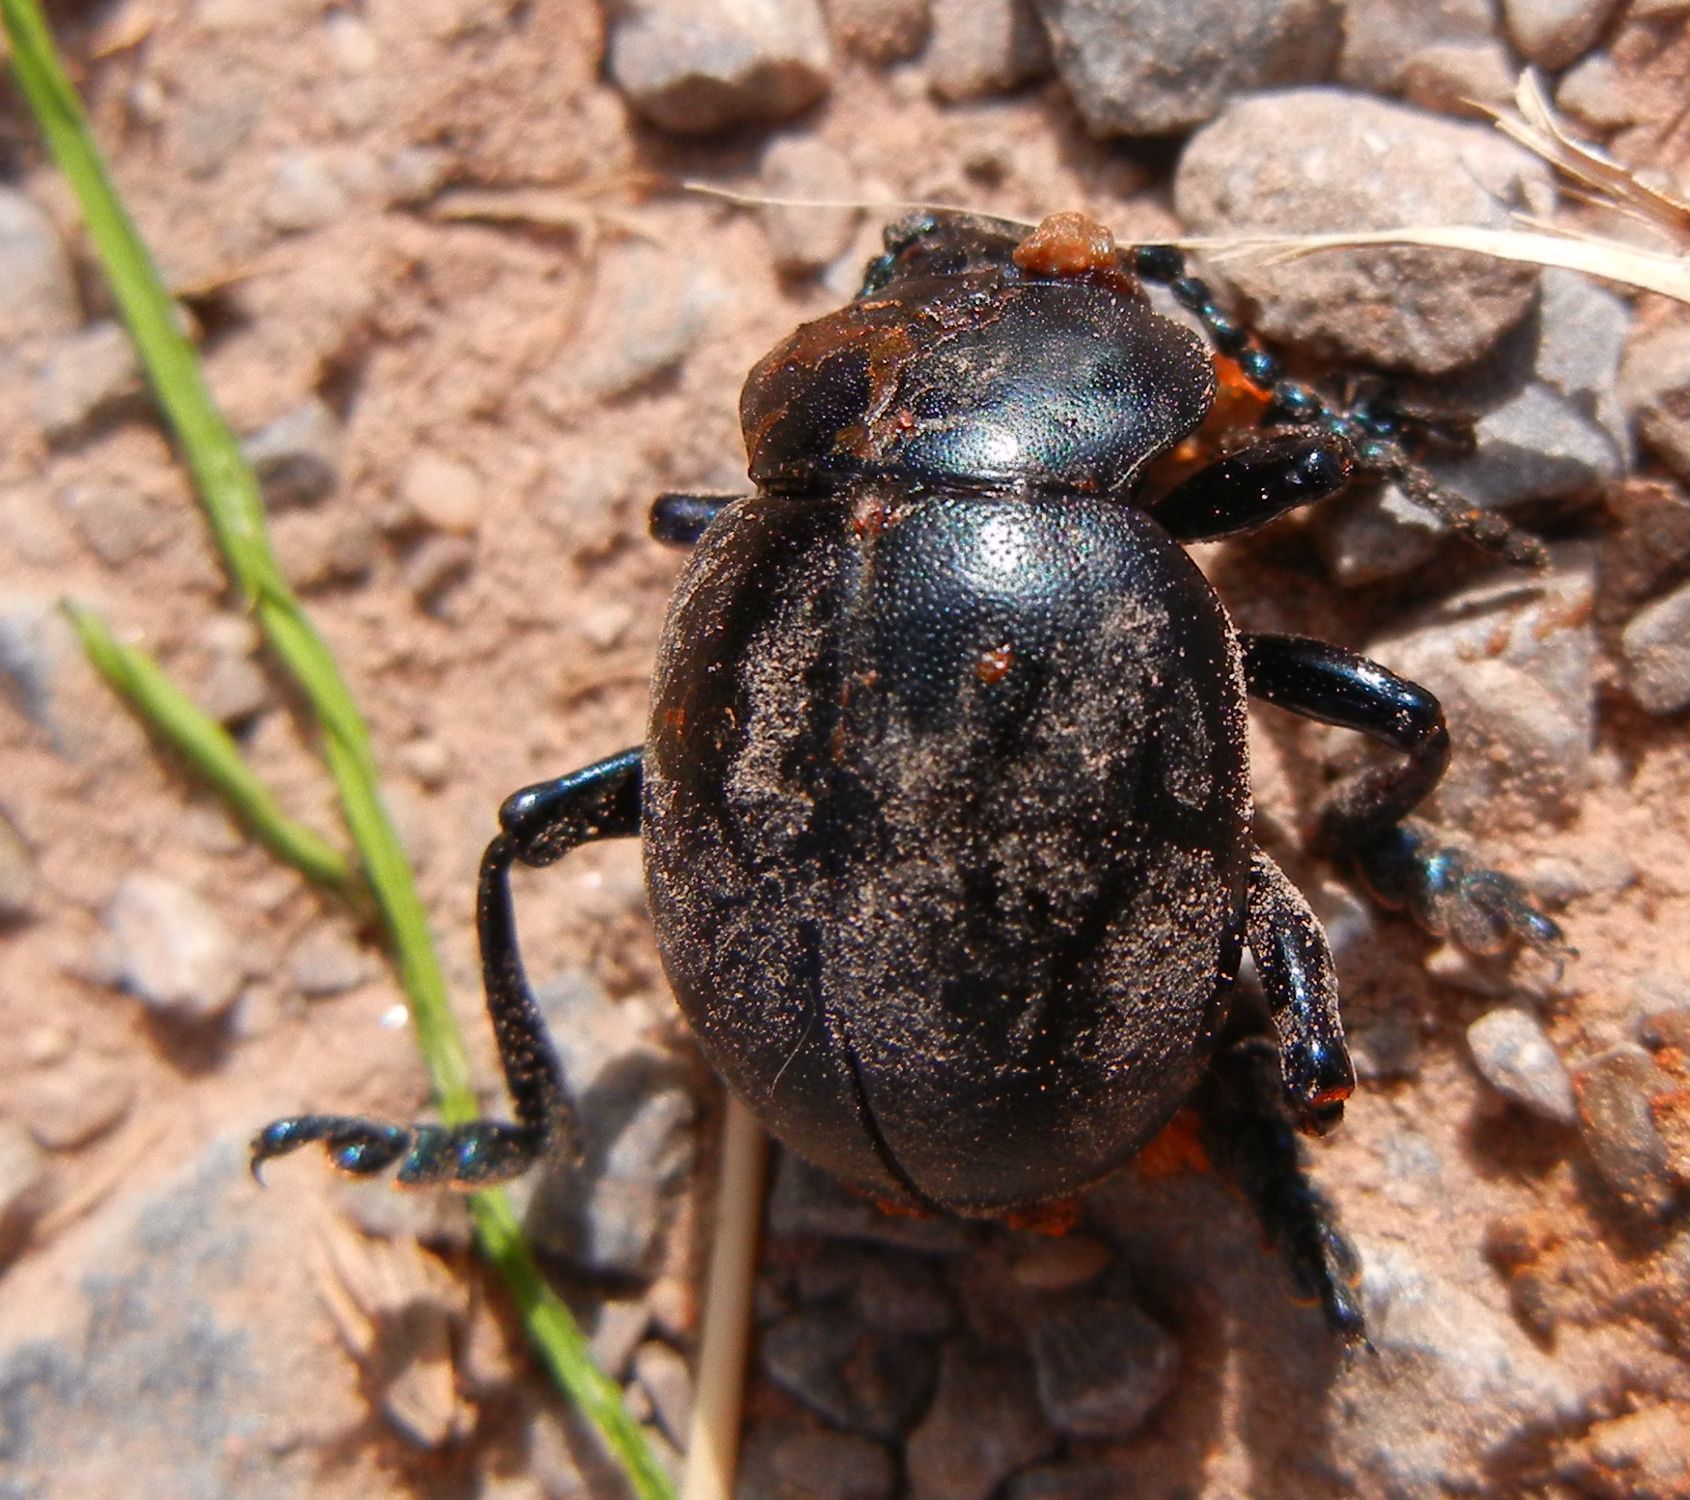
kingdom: Animalia
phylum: Arthropoda
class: Insecta
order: Coleoptera
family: Chrysomelidae
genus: Timarcha
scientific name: Timarcha tenebricosa
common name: Bloody-nosed beetle
